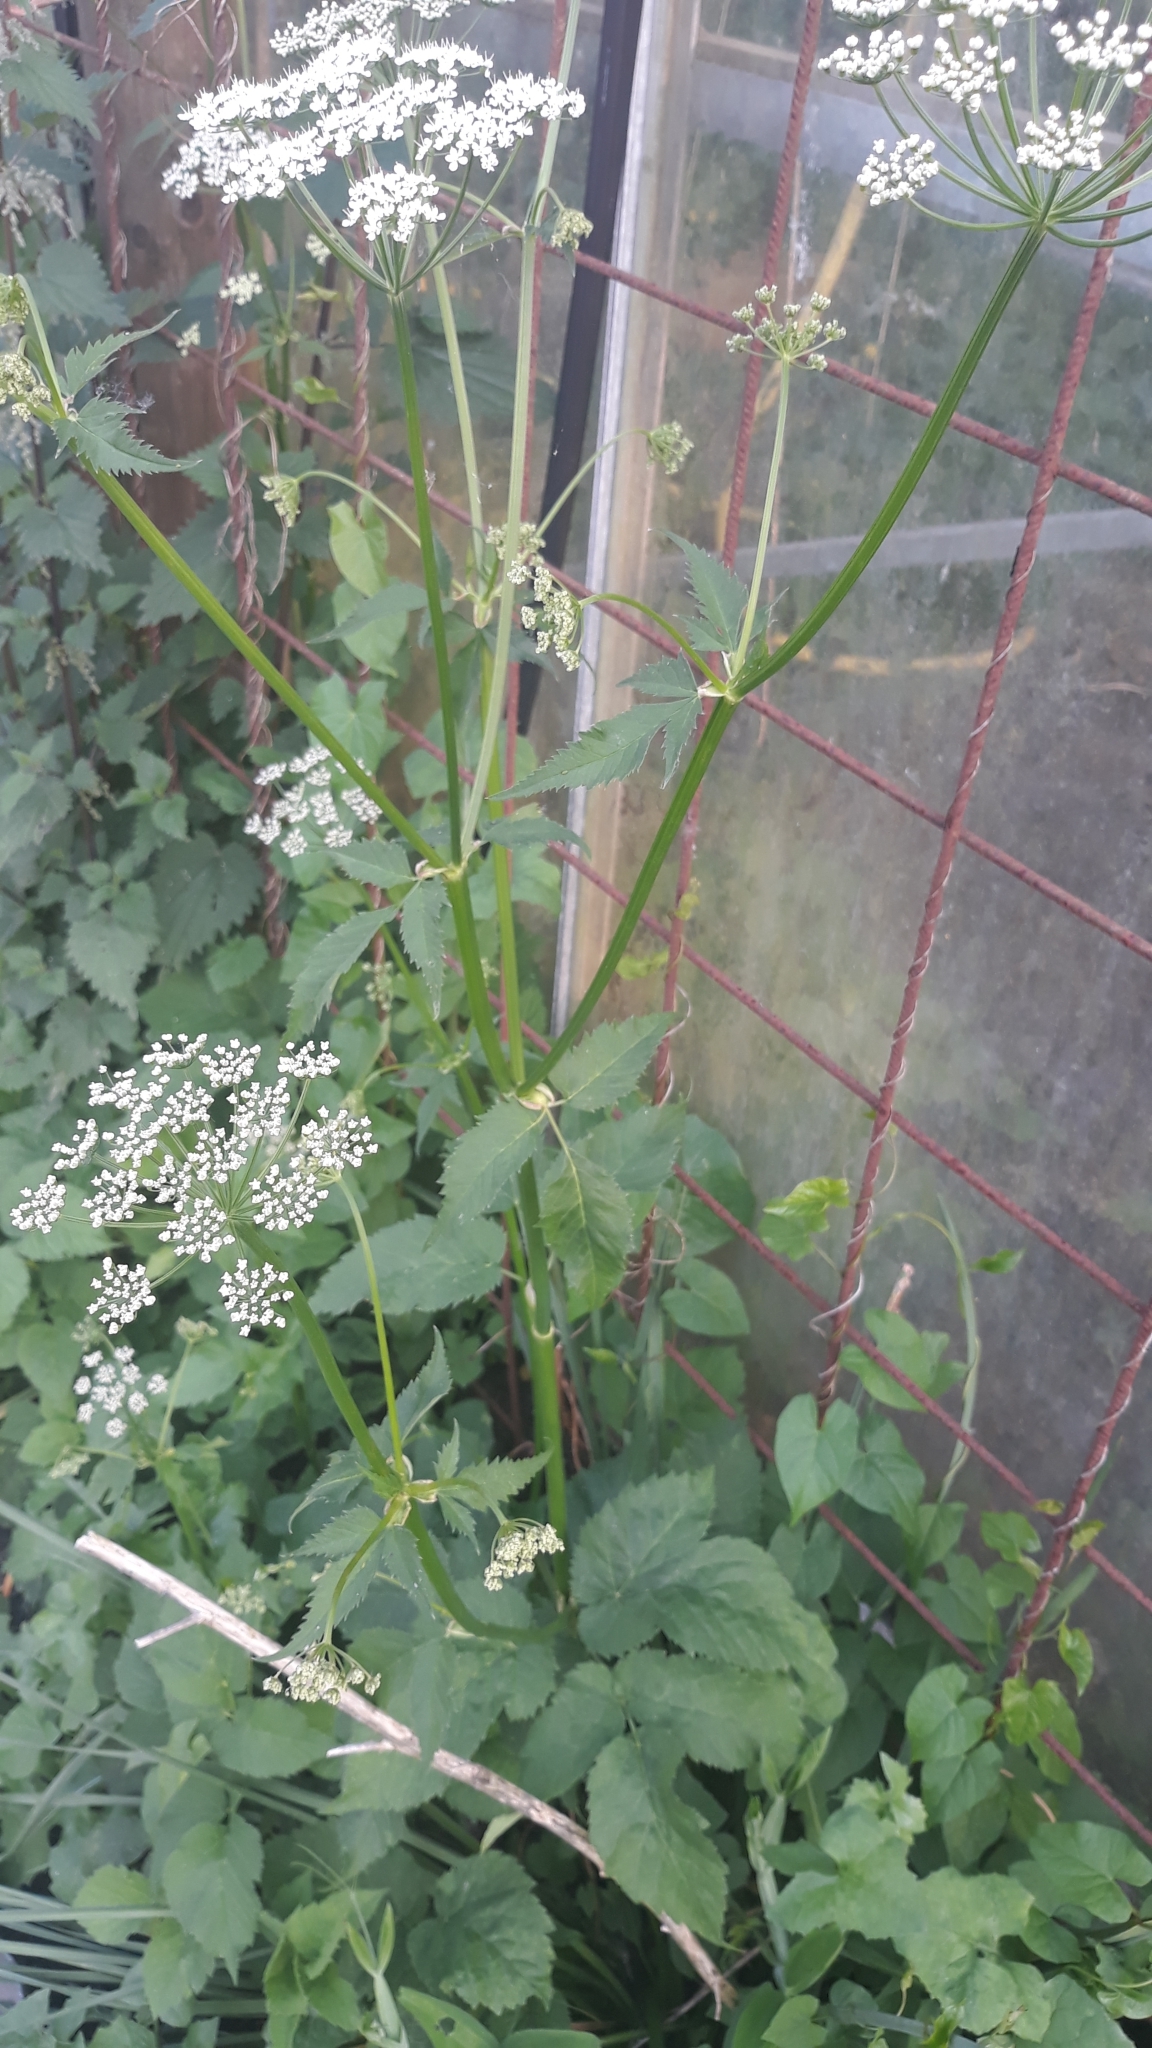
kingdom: Plantae
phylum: Tracheophyta
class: Magnoliopsida
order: Apiales
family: Apiaceae
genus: Aegopodium
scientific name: Aegopodium podagraria
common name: Ground-elder
